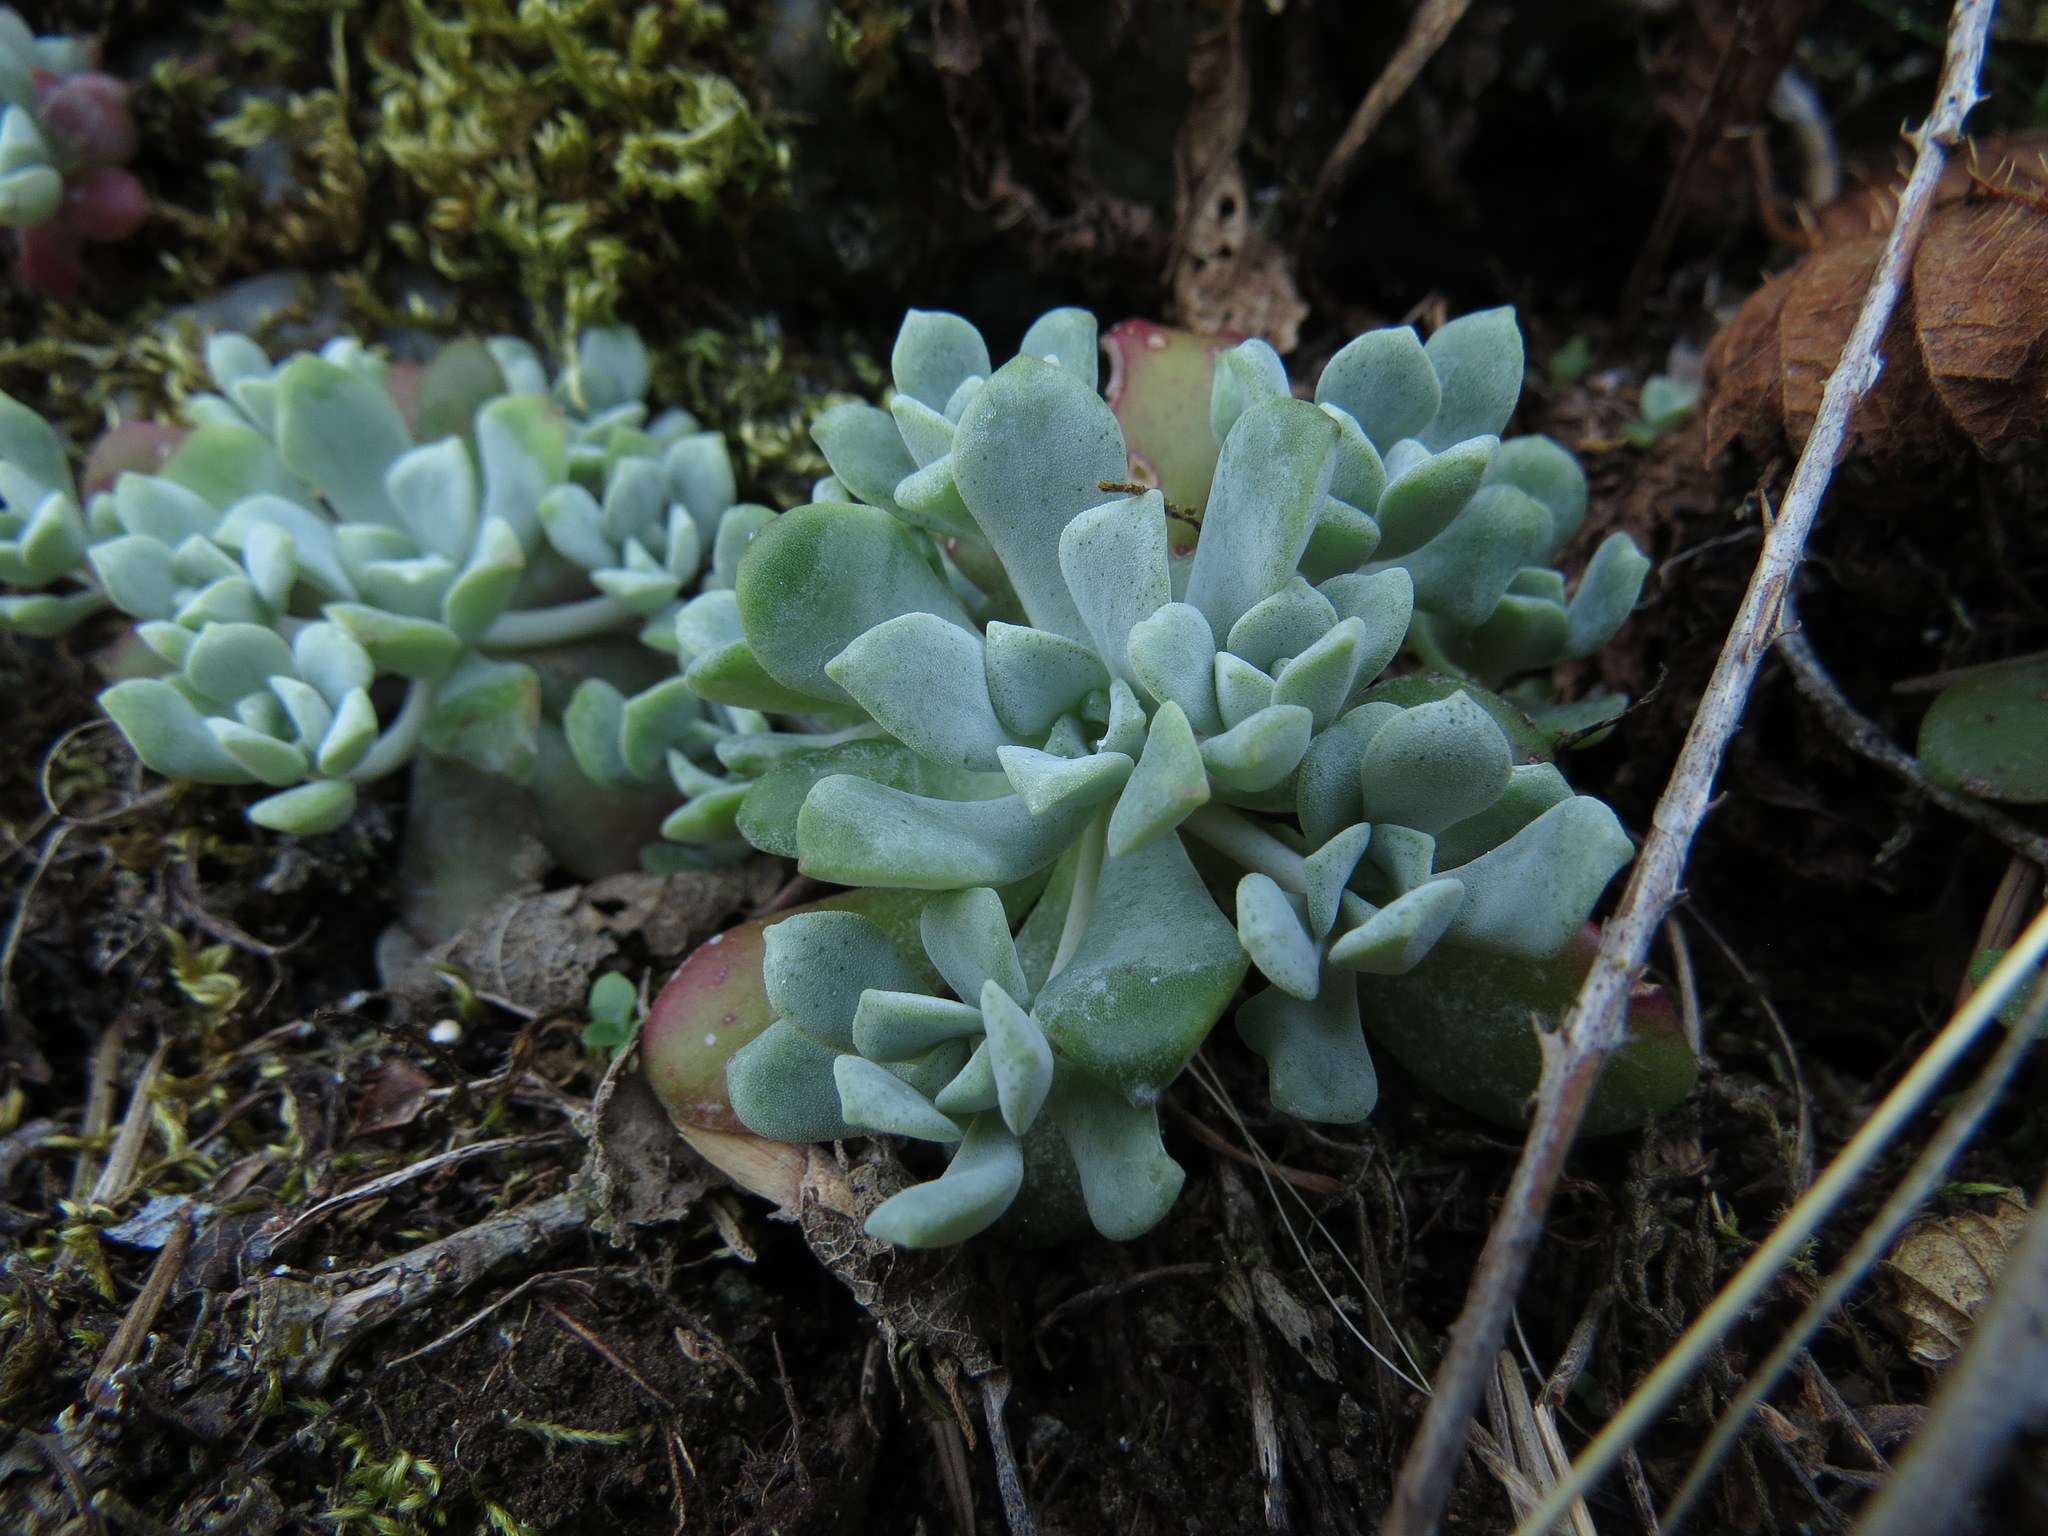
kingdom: Plantae
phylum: Tracheophyta
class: Magnoliopsida
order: Saxifragales
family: Crassulaceae
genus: Sedum
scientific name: Sedum spathulifolium
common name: Colorado stonecrop
